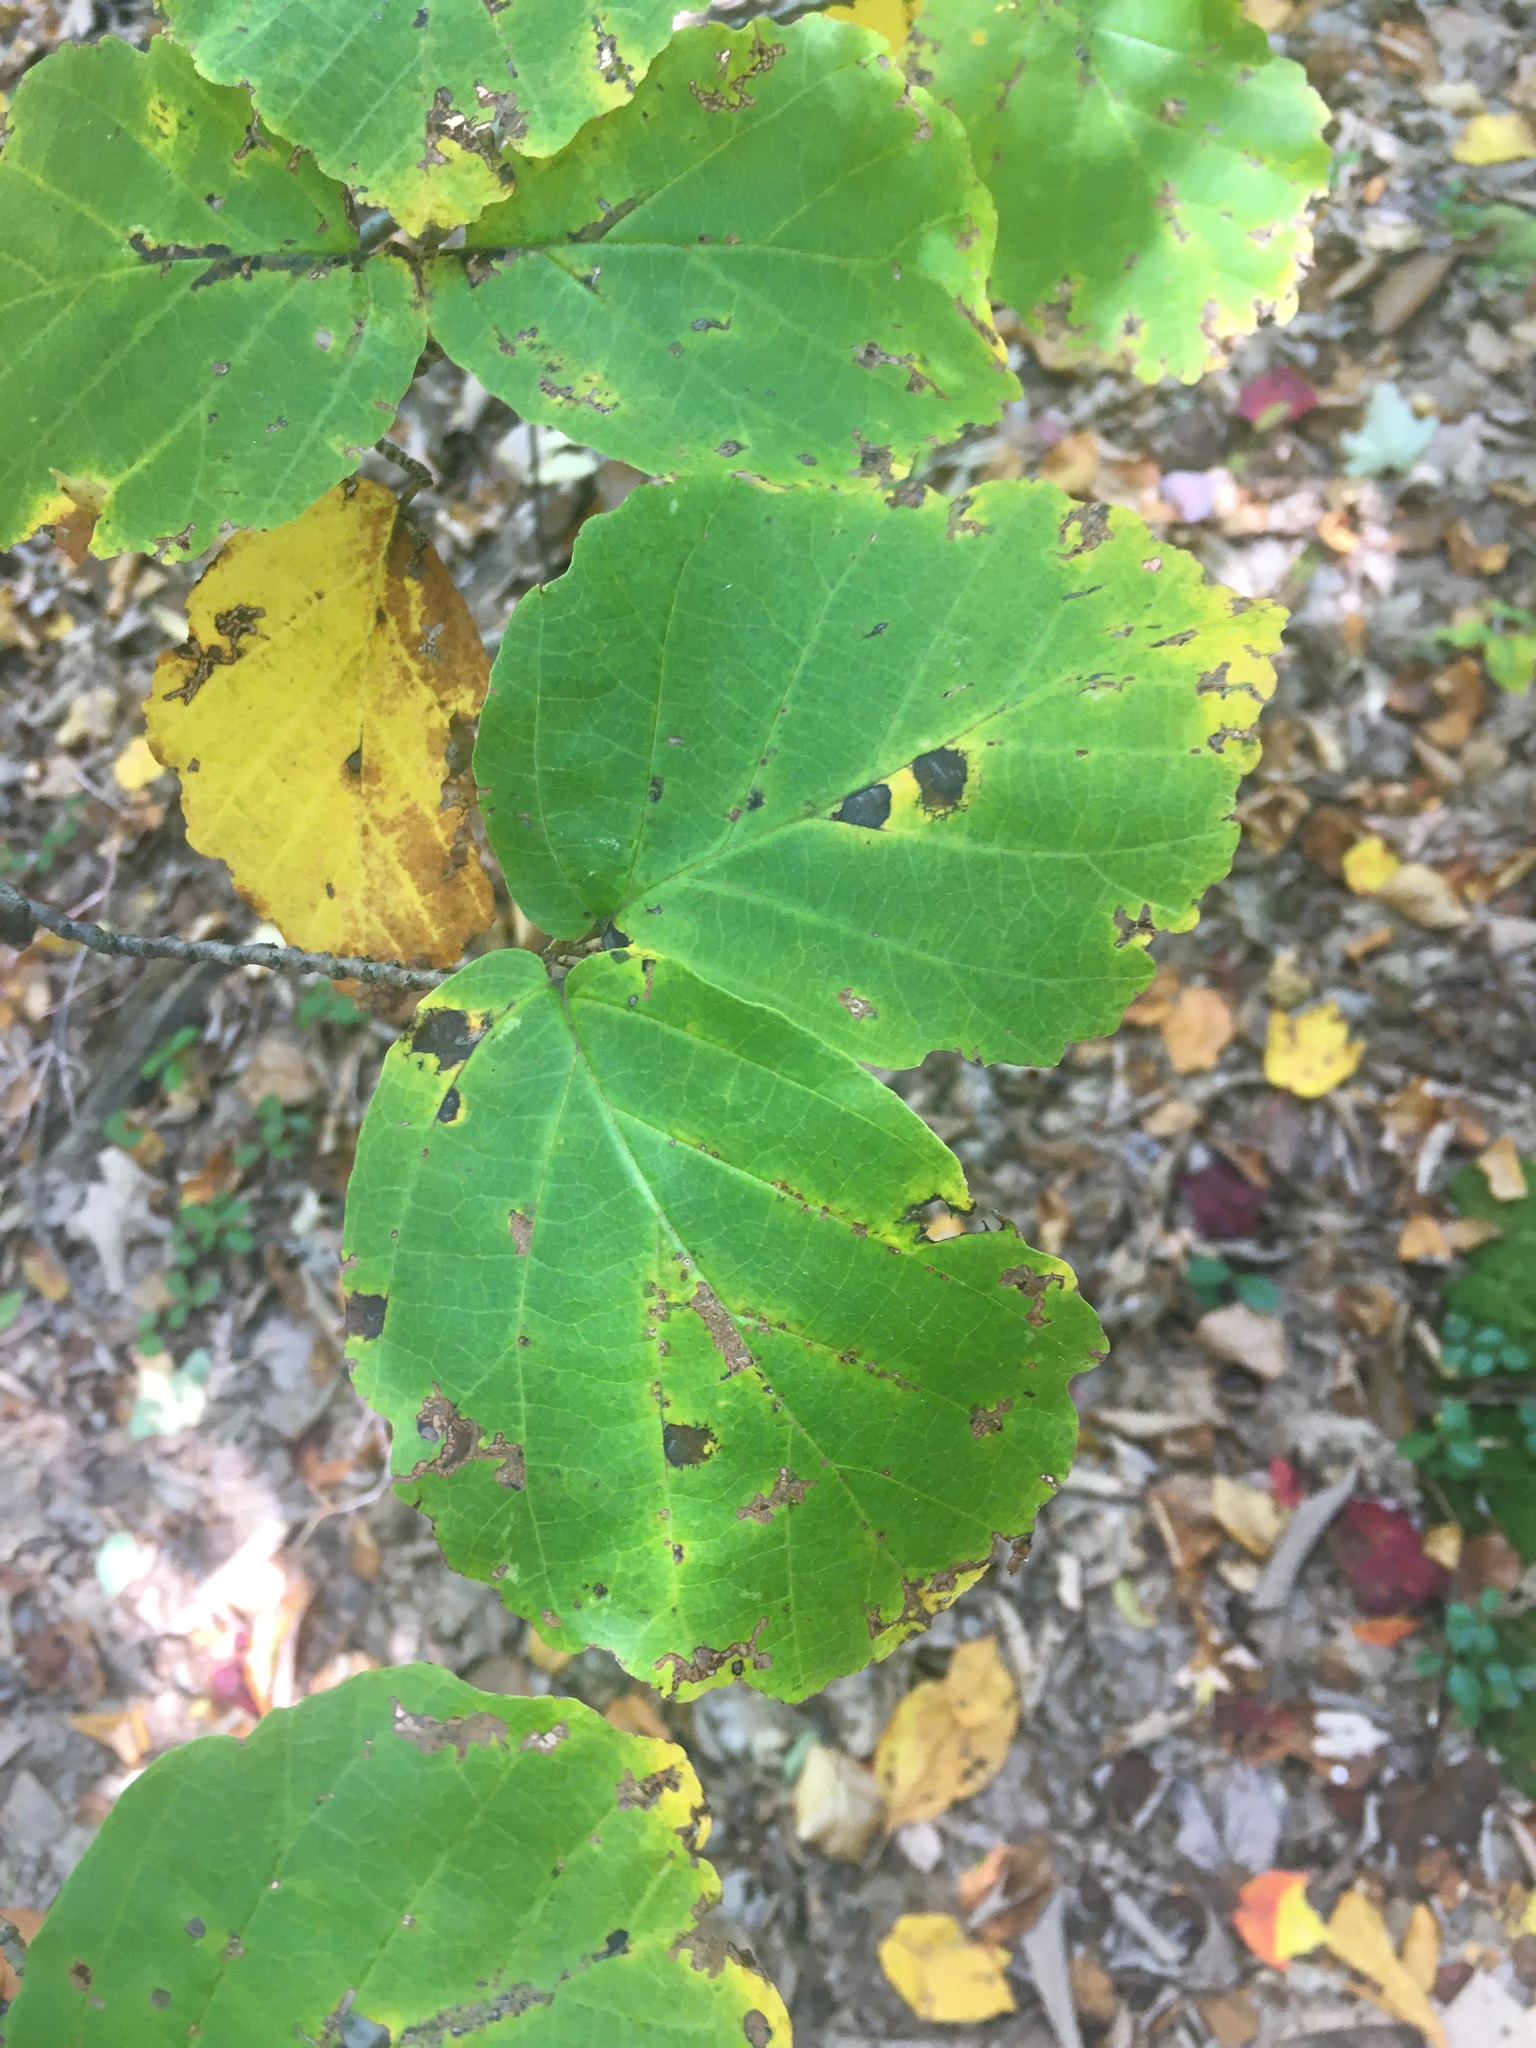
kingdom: Plantae
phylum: Tracheophyta
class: Magnoliopsida
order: Saxifragales
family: Hamamelidaceae
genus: Hamamelis
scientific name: Hamamelis virginiana
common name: Witch-hazel
